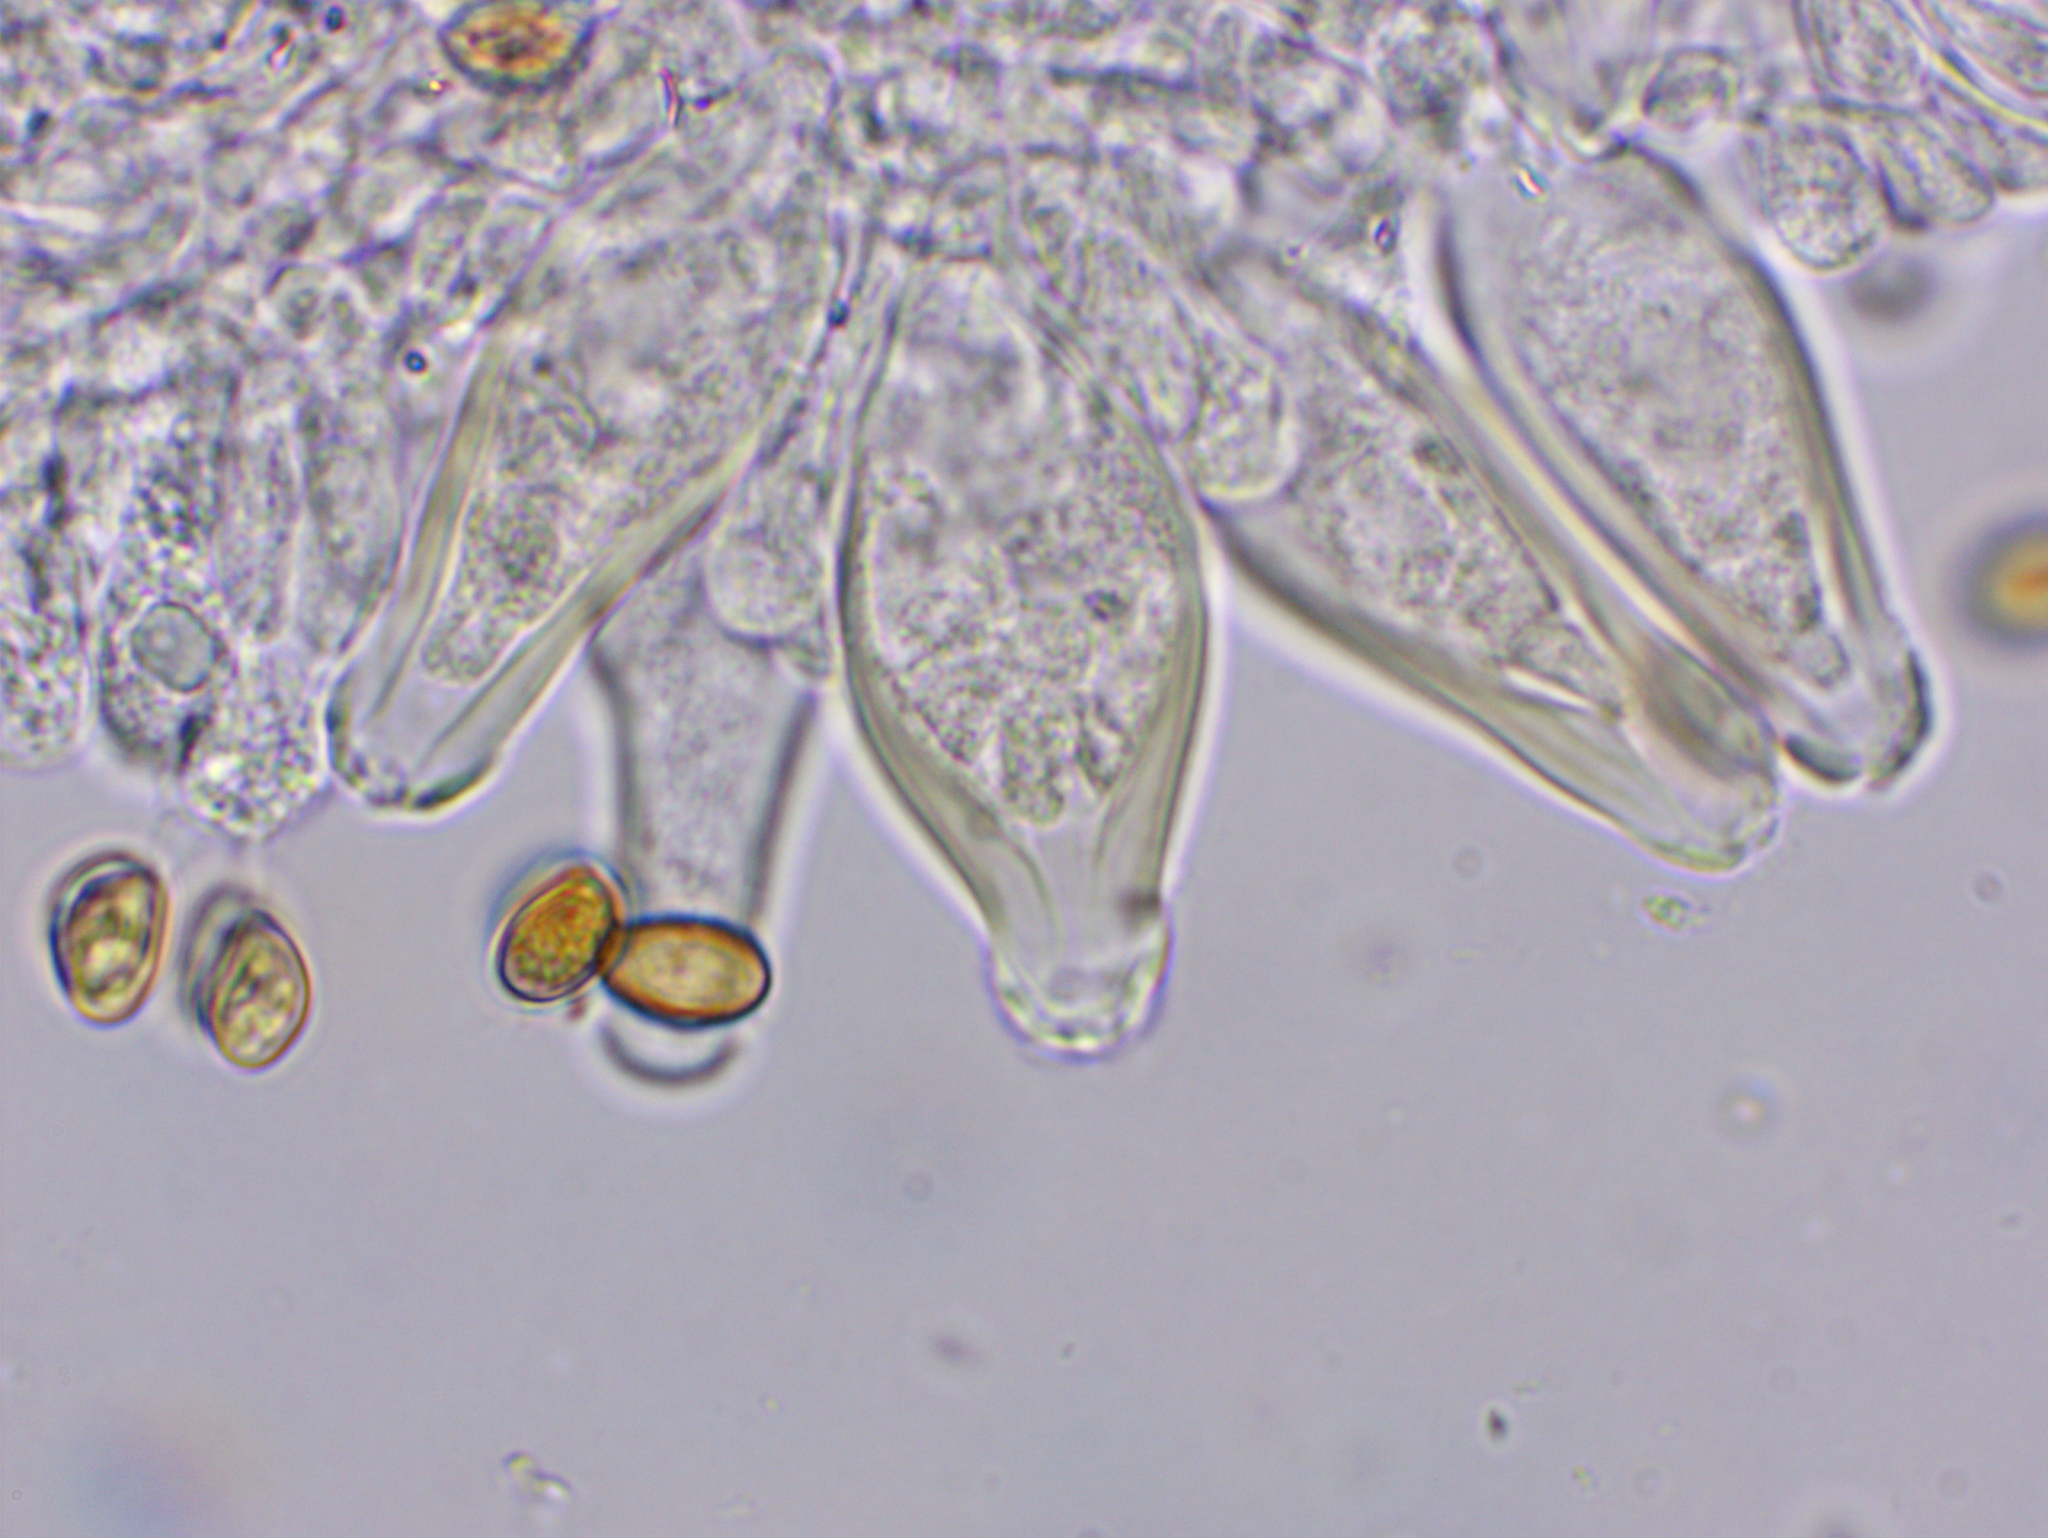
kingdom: Fungi
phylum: Basidiomycota
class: Agaricomycetes
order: Agaricales
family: Inocybaceae
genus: Inocybe
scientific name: Inocybe geophylla
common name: White fibrecap
